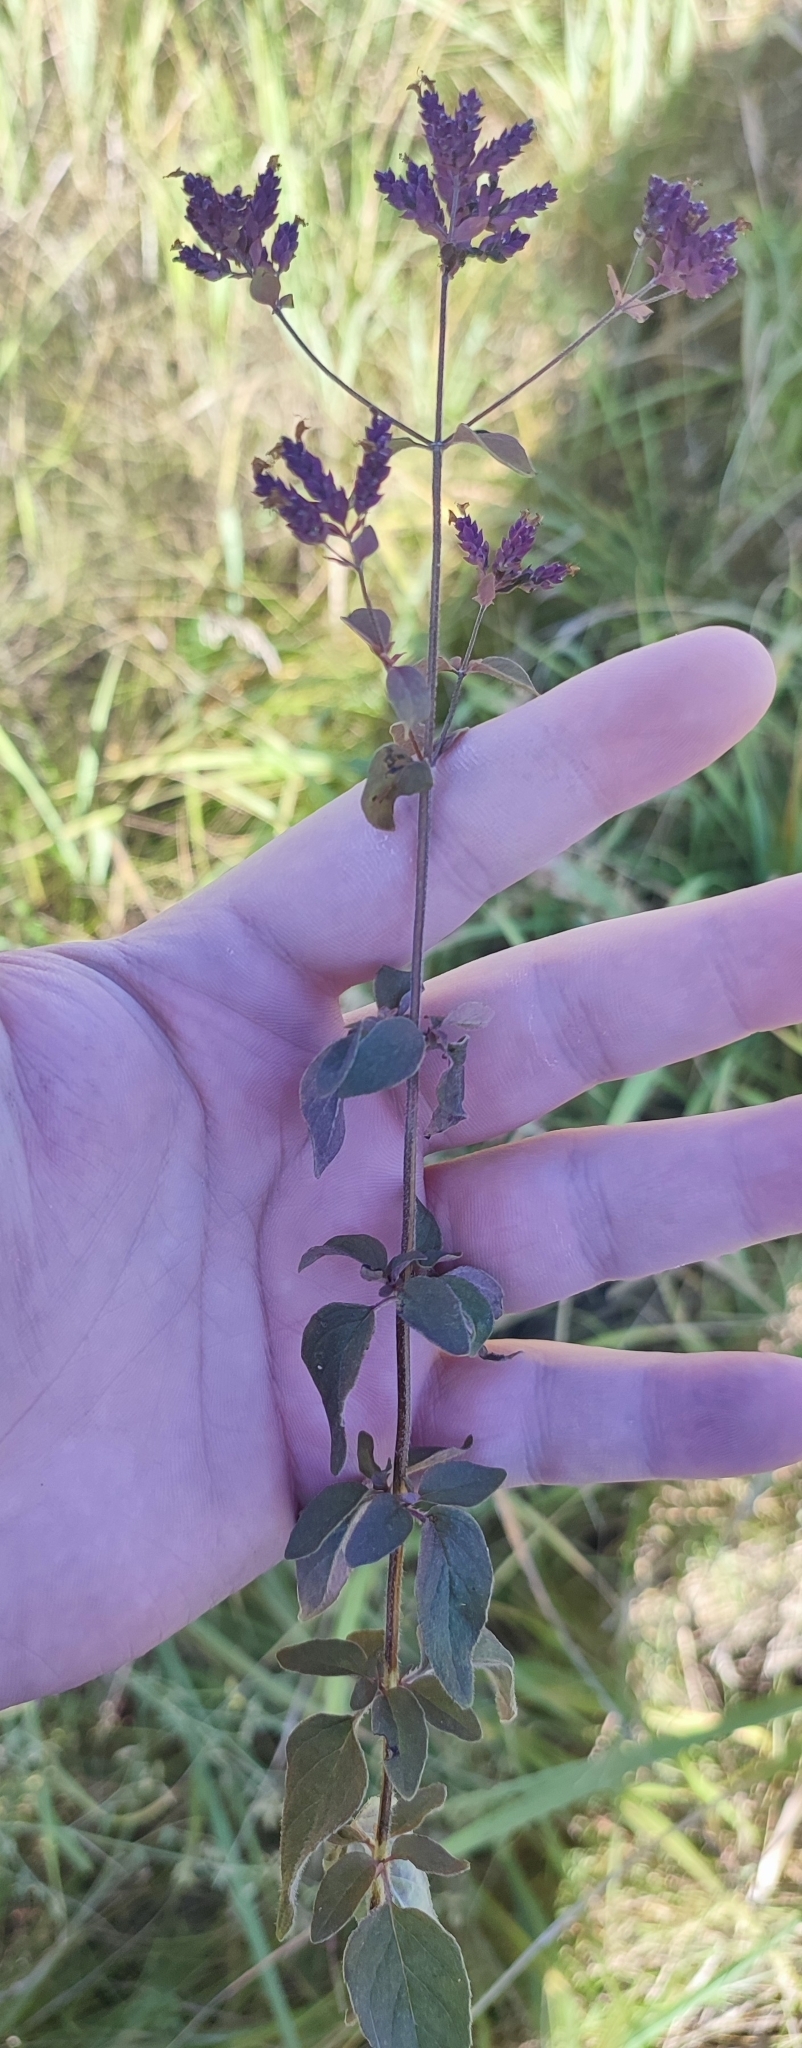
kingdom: Plantae
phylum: Tracheophyta
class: Magnoliopsida
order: Lamiales
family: Lamiaceae
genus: Origanum
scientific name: Origanum vulgare
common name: Wild marjoram
